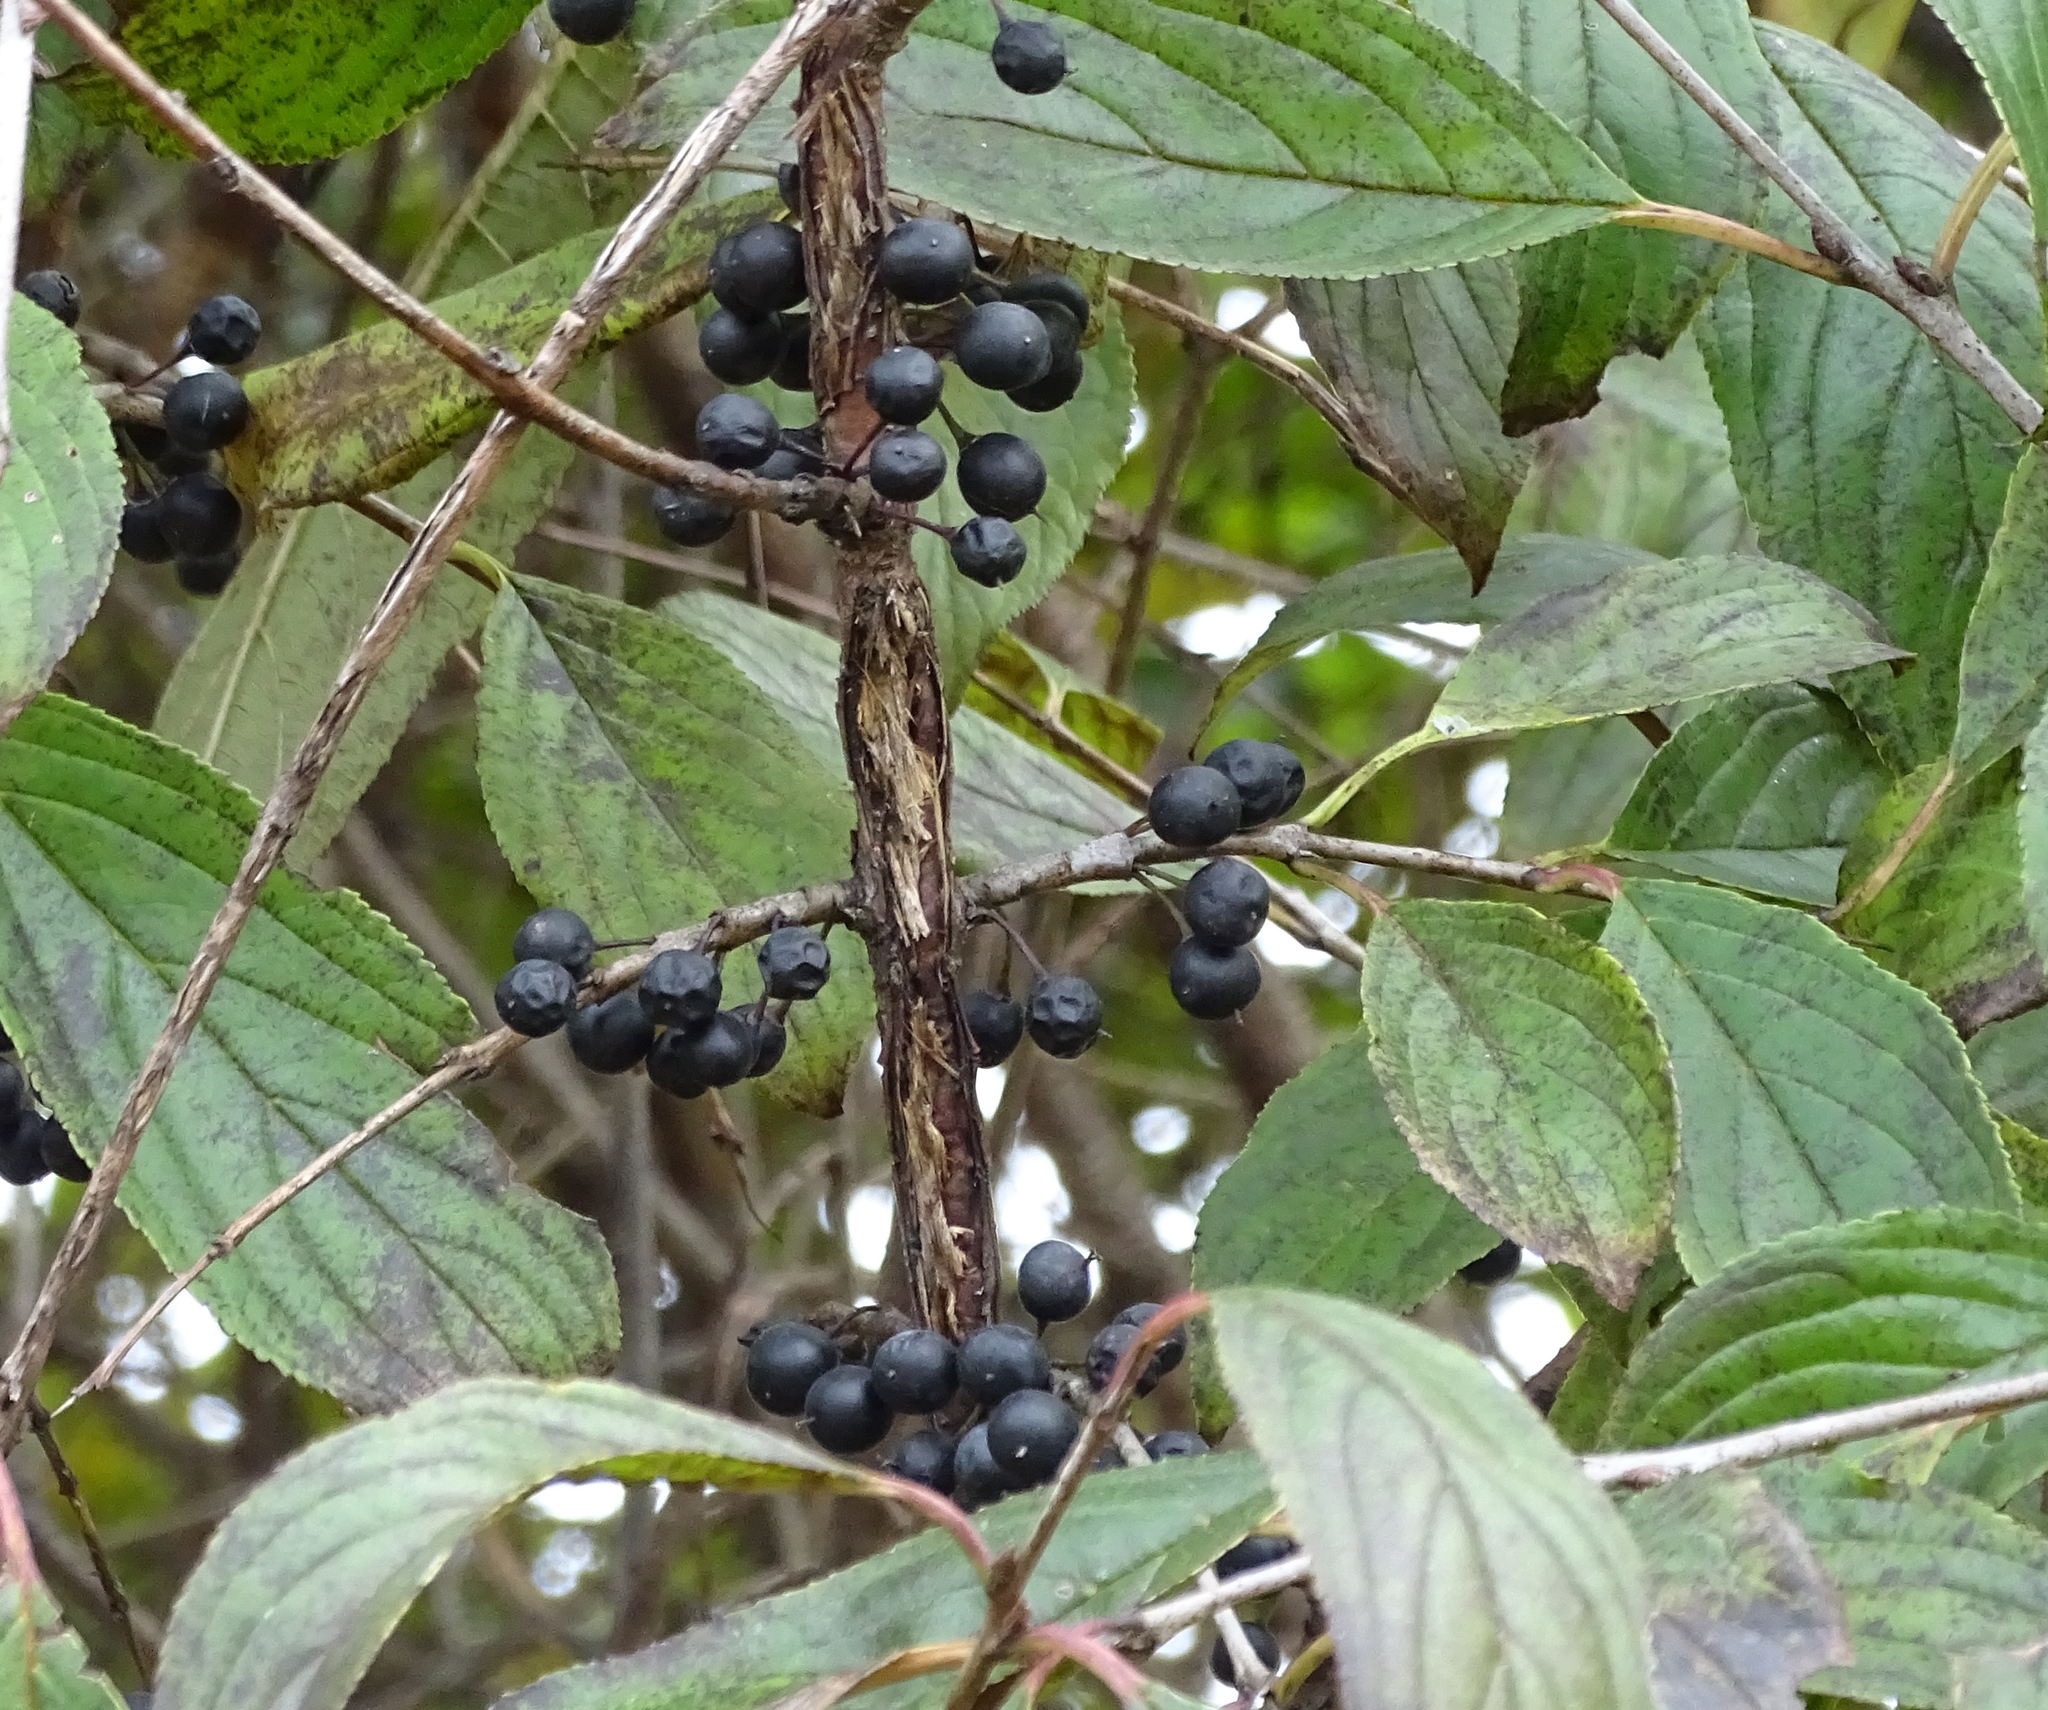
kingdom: Plantae
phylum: Tracheophyta
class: Magnoliopsida
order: Rosales
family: Rhamnaceae
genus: Rhamnus
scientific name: Rhamnus virgata
